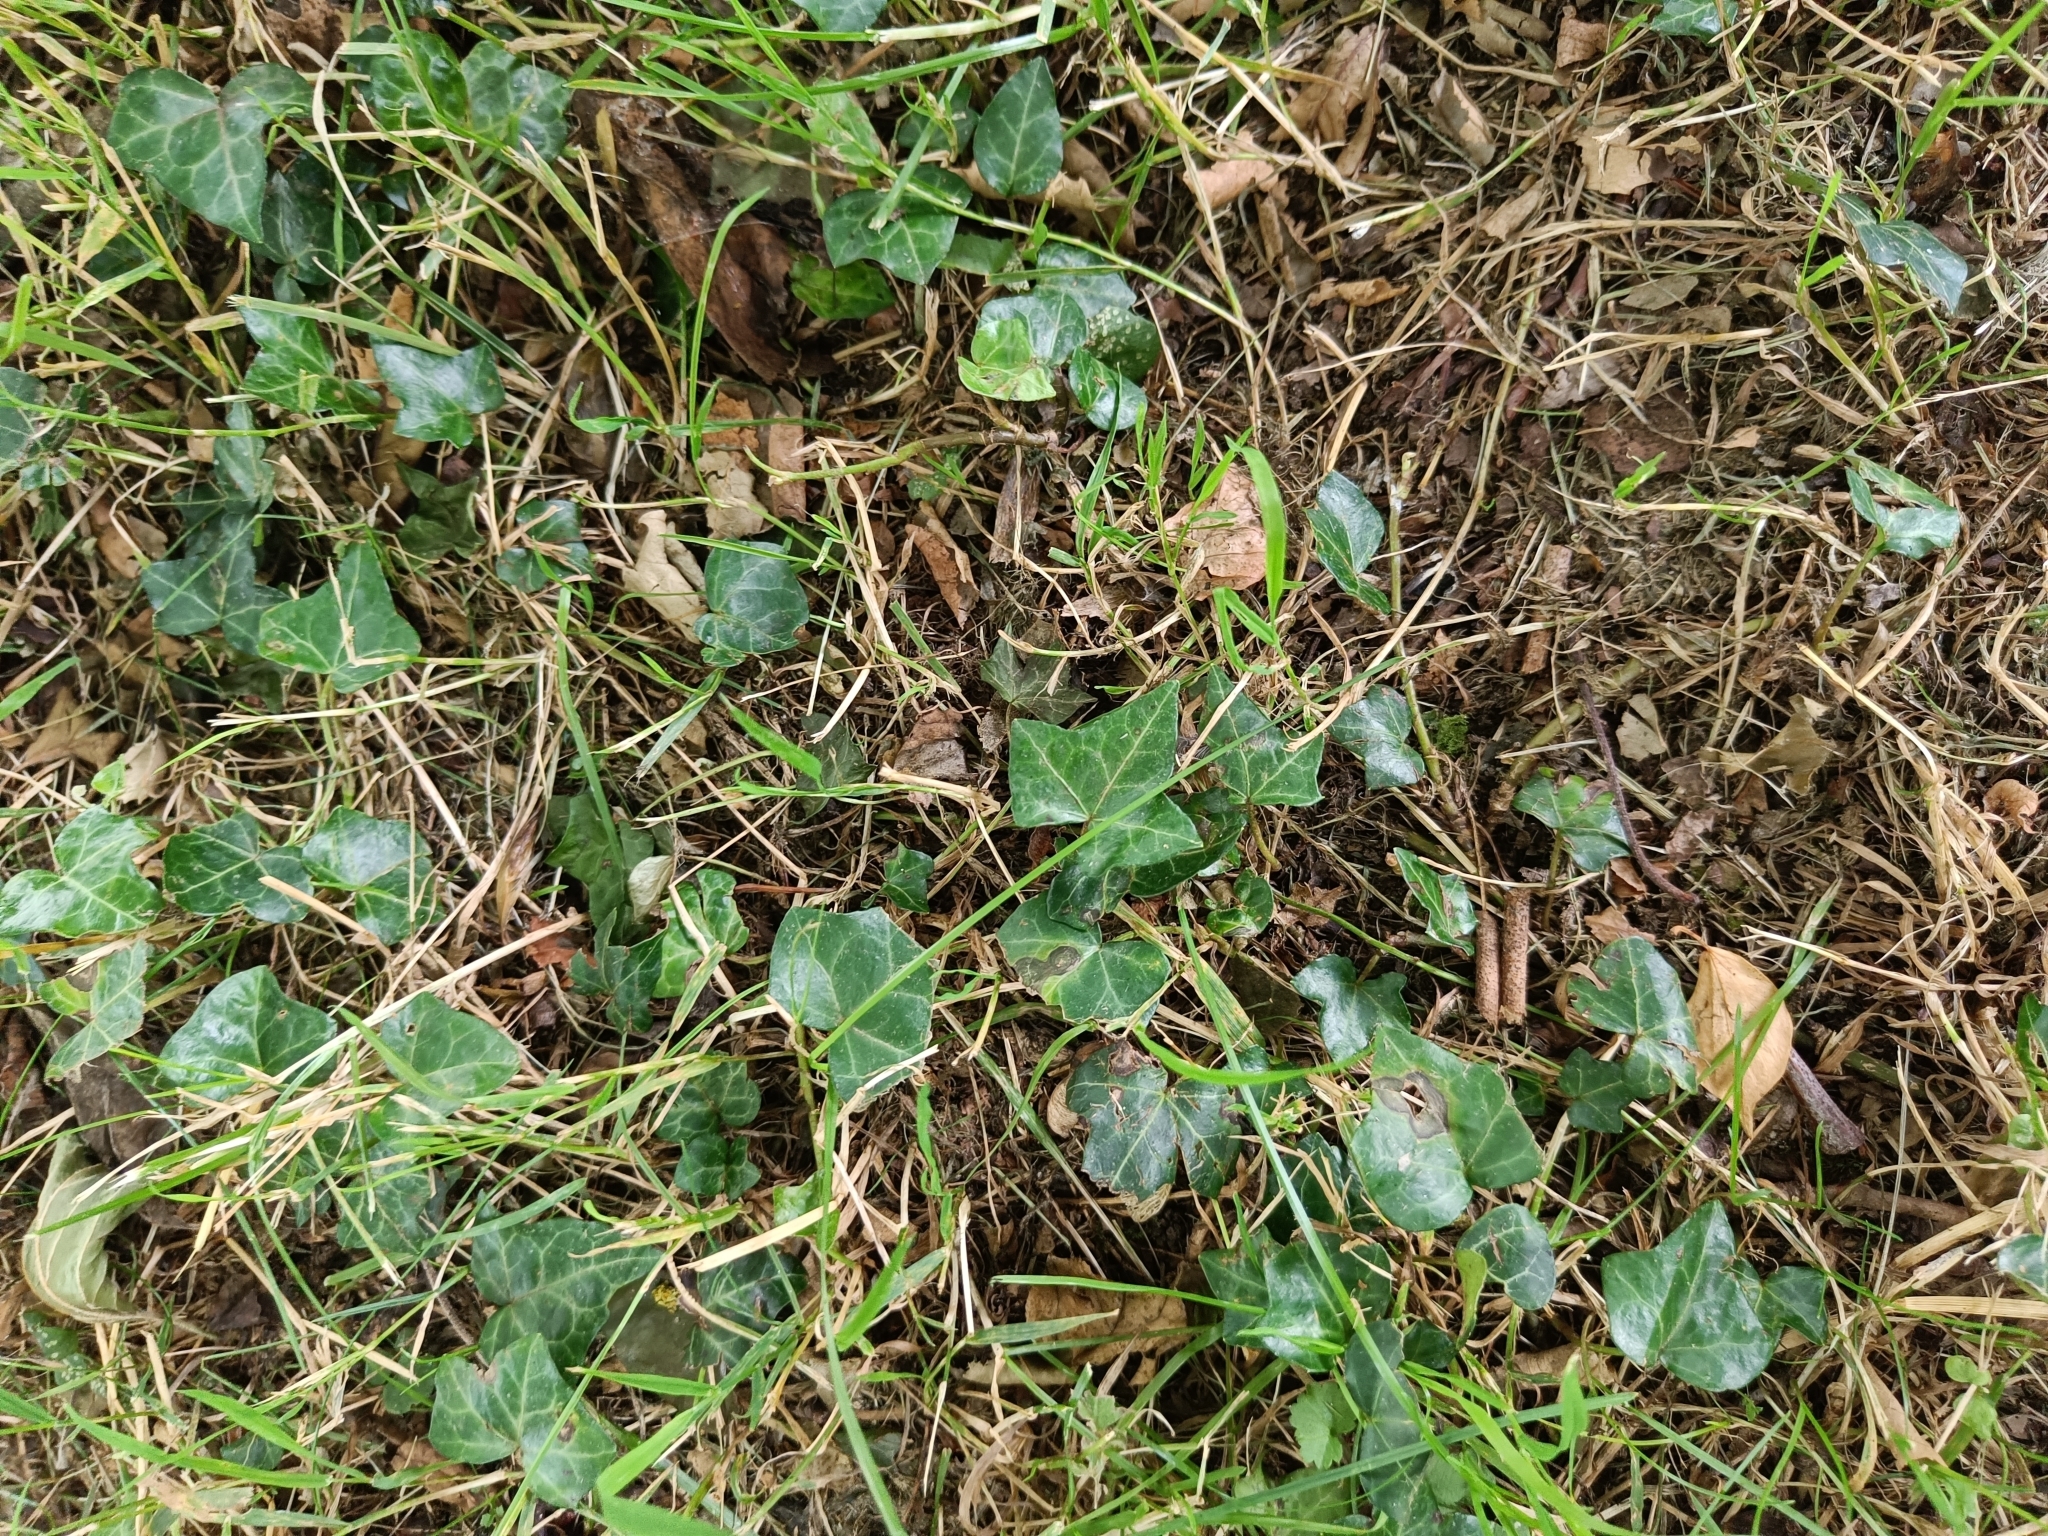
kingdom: Plantae
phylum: Tracheophyta
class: Magnoliopsida
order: Apiales
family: Araliaceae
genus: Hedera
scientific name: Hedera helix
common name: Ivy
